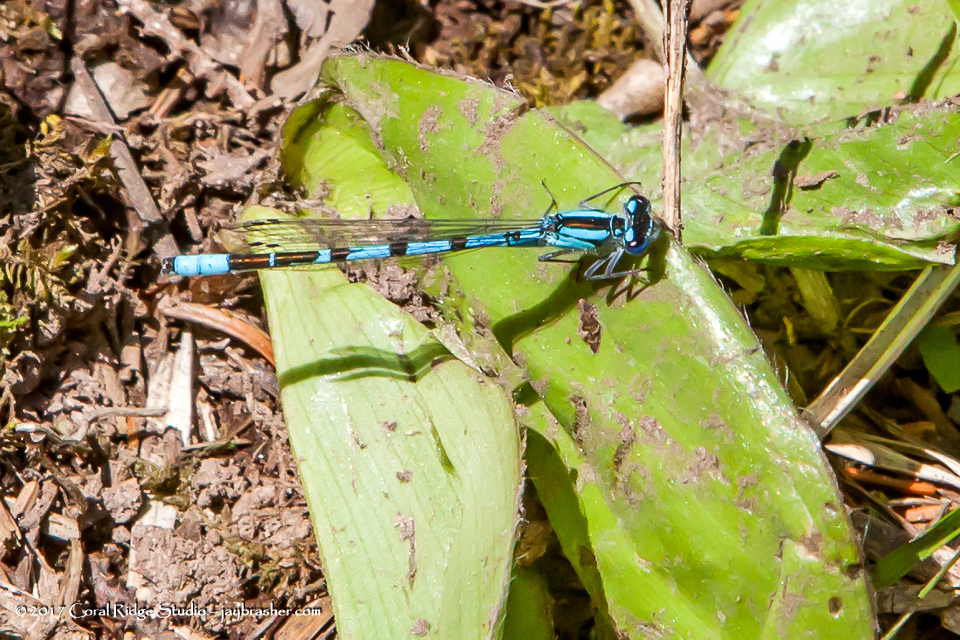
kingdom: Animalia
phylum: Arthropoda
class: Insecta
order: Odonata
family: Coenagrionidae
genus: Enallagma
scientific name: Enallagma boreale
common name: Boreal bluet
